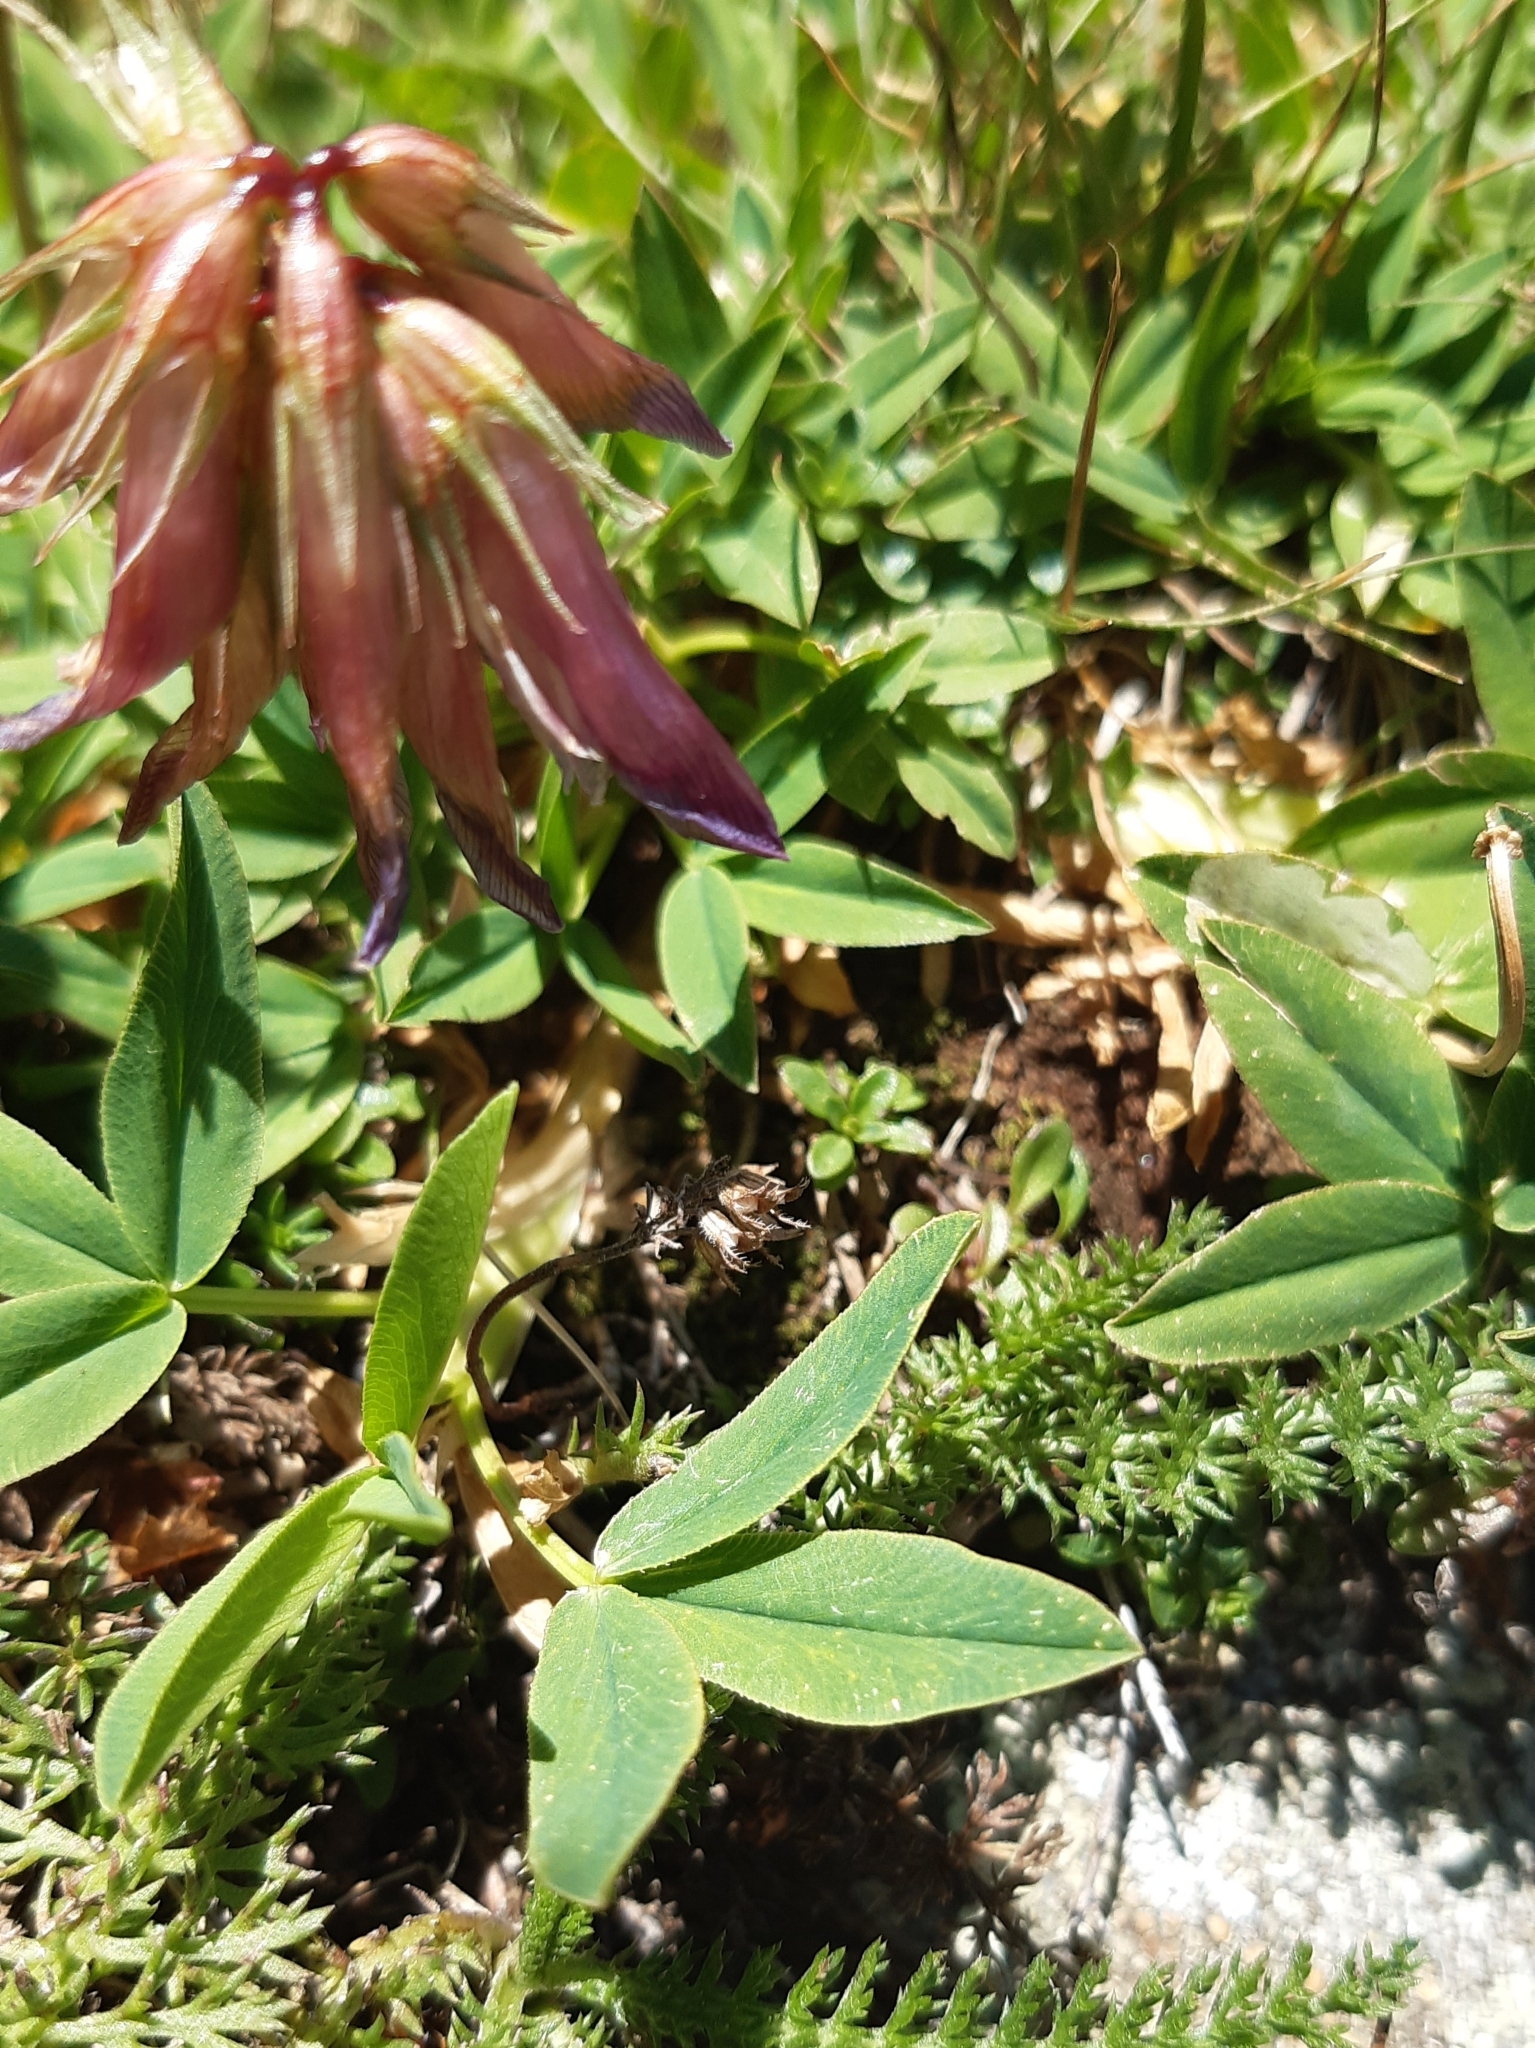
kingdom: Plantae
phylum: Tracheophyta
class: Magnoliopsida
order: Fabales
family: Fabaceae
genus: Trifolium
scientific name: Trifolium alpinum
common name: Alpine clover
